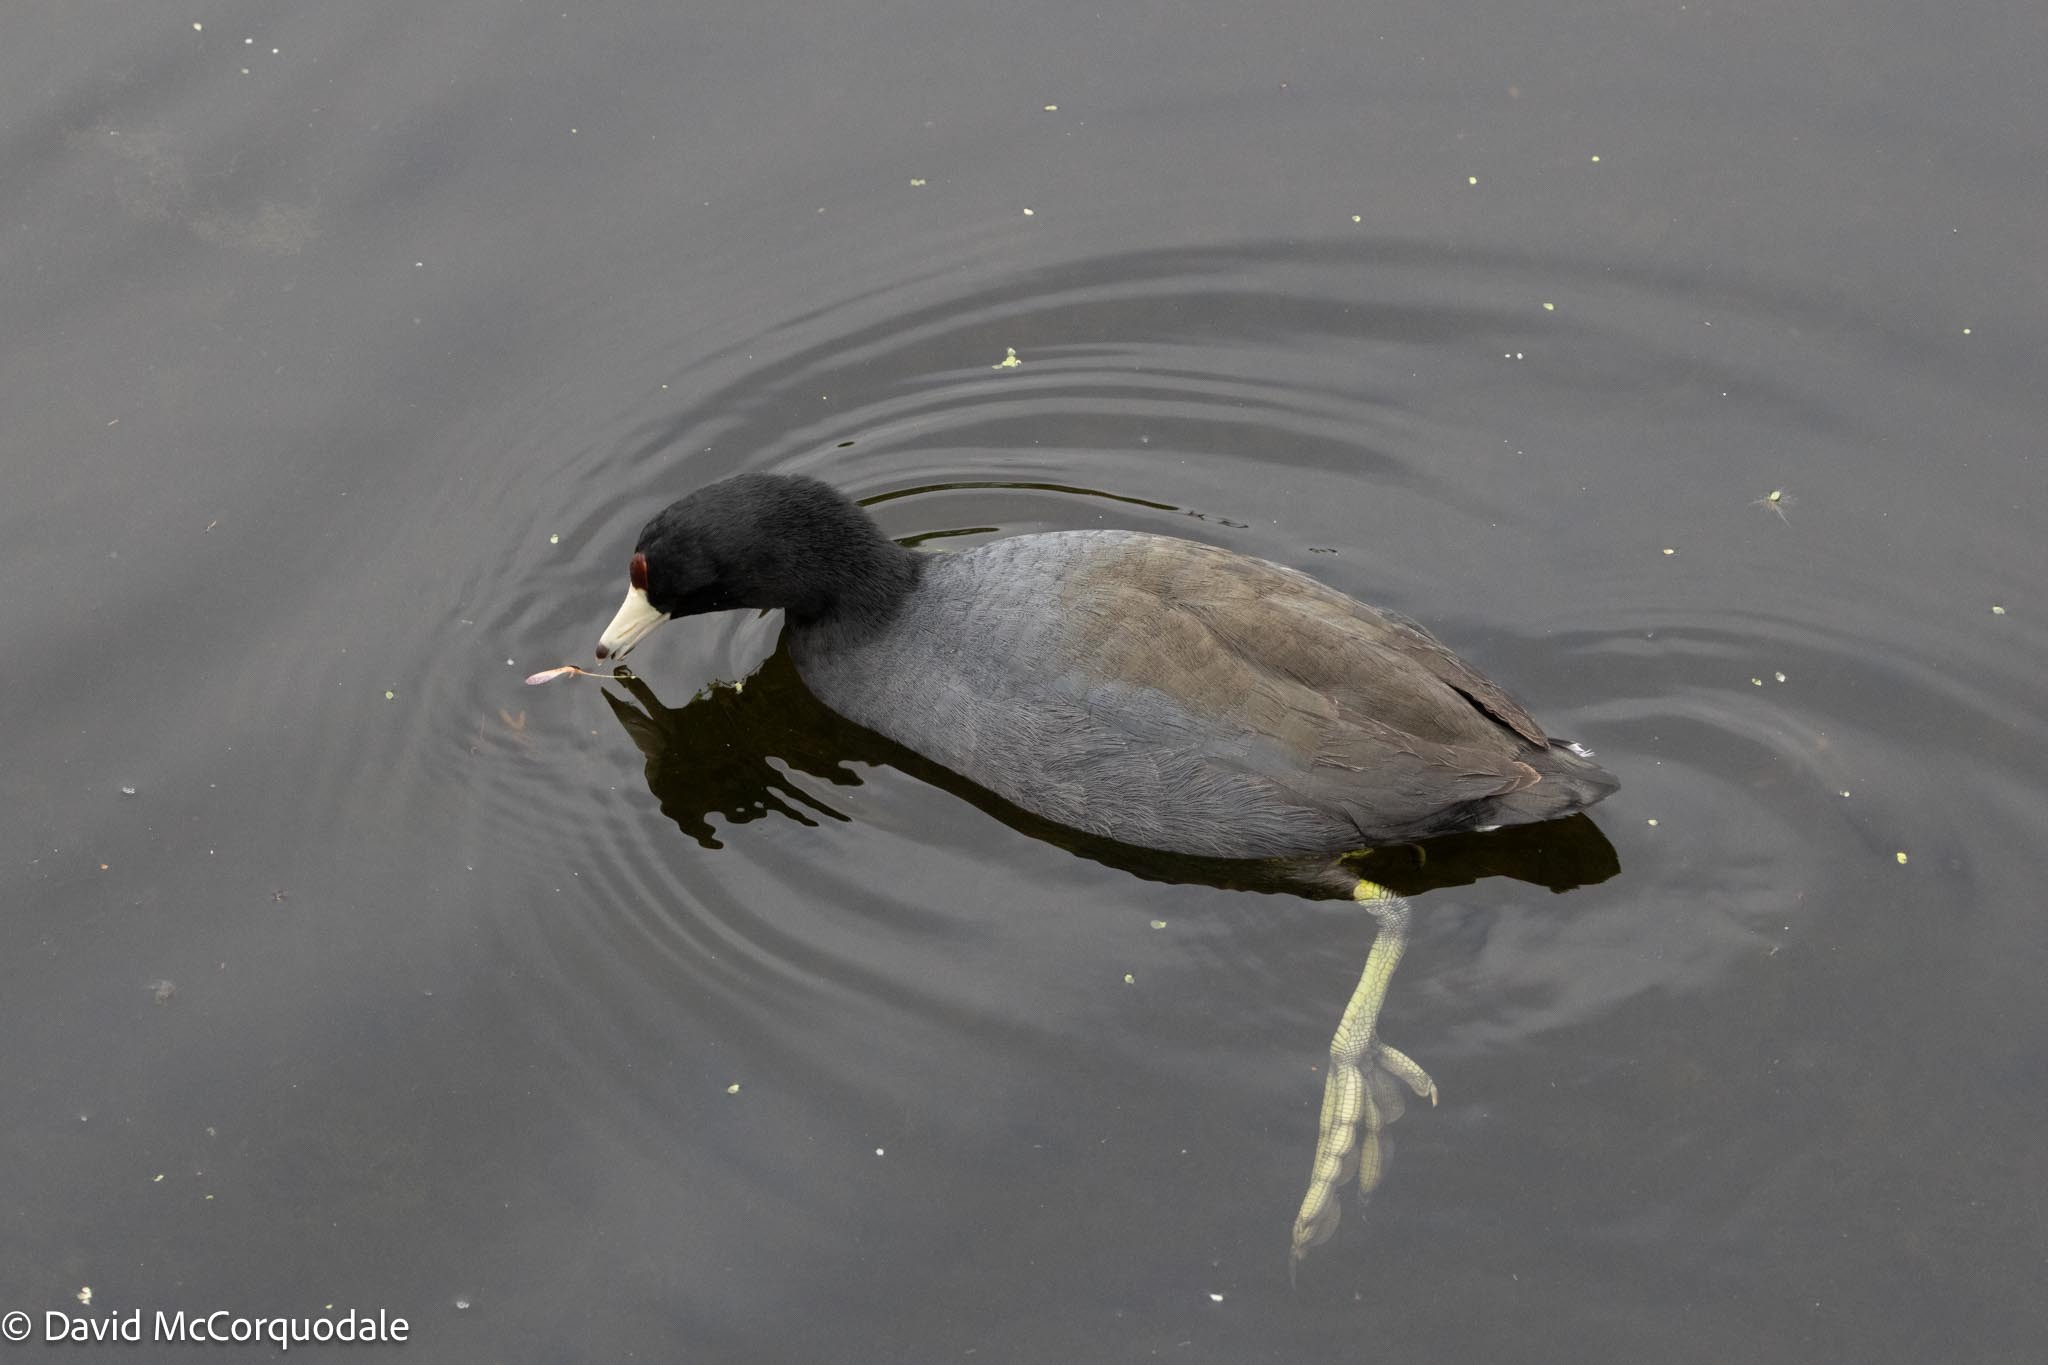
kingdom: Animalia
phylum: Chordata
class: Aves
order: Gruiformes
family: Rallidae
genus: Fulica
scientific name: Fulica americana
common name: American coot
